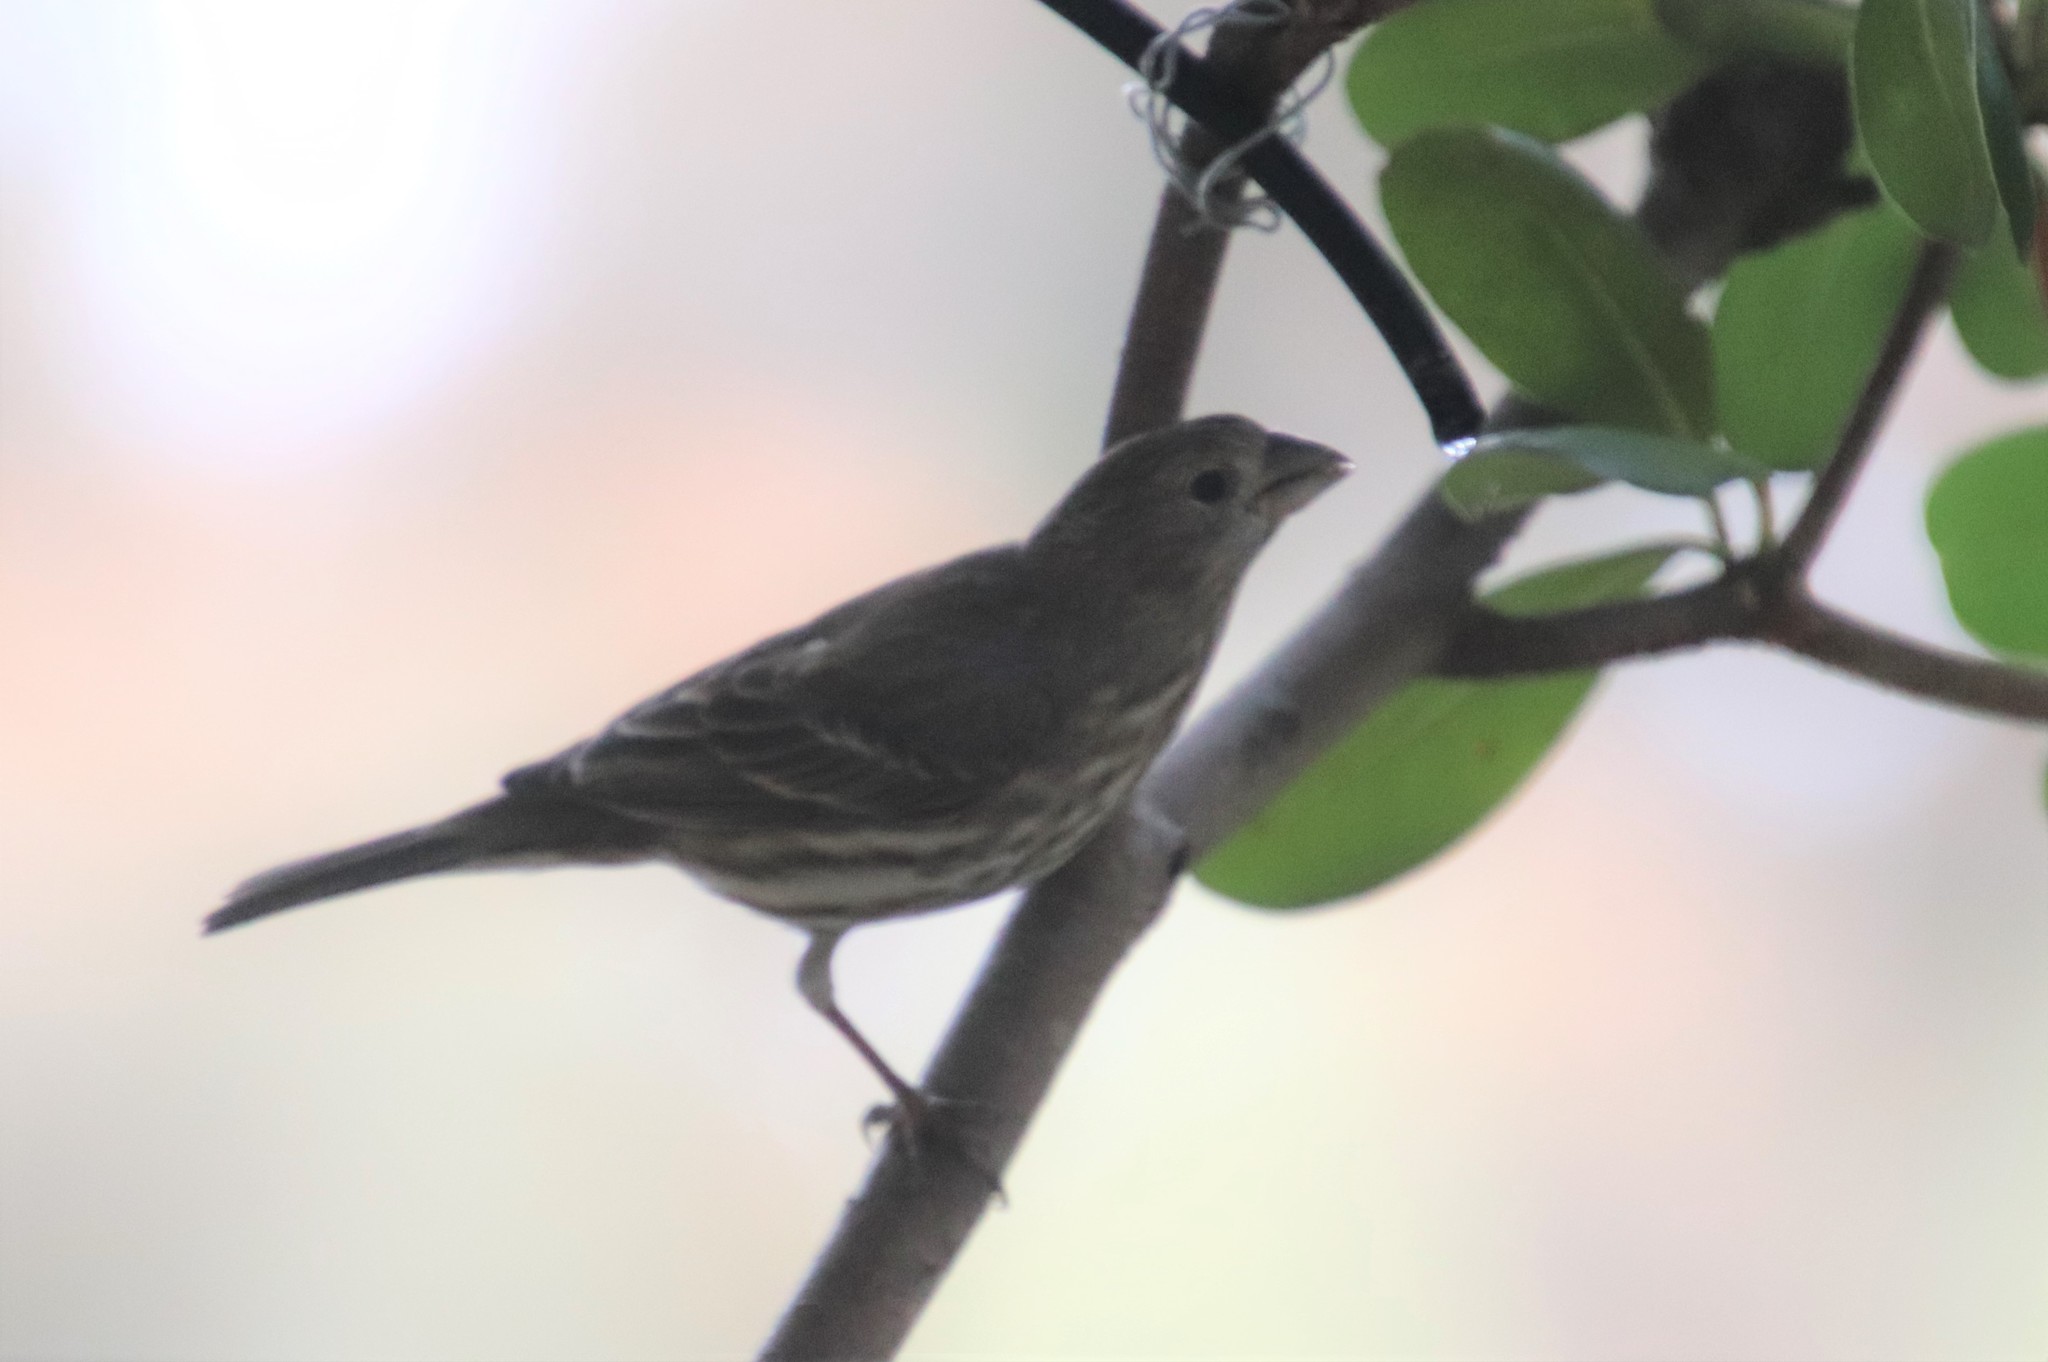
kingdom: Animalia
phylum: Chordata
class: Aves
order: Passeriformes
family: Fringillidae
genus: Haemorhous
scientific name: Haemorhous mexicanus
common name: House finch
